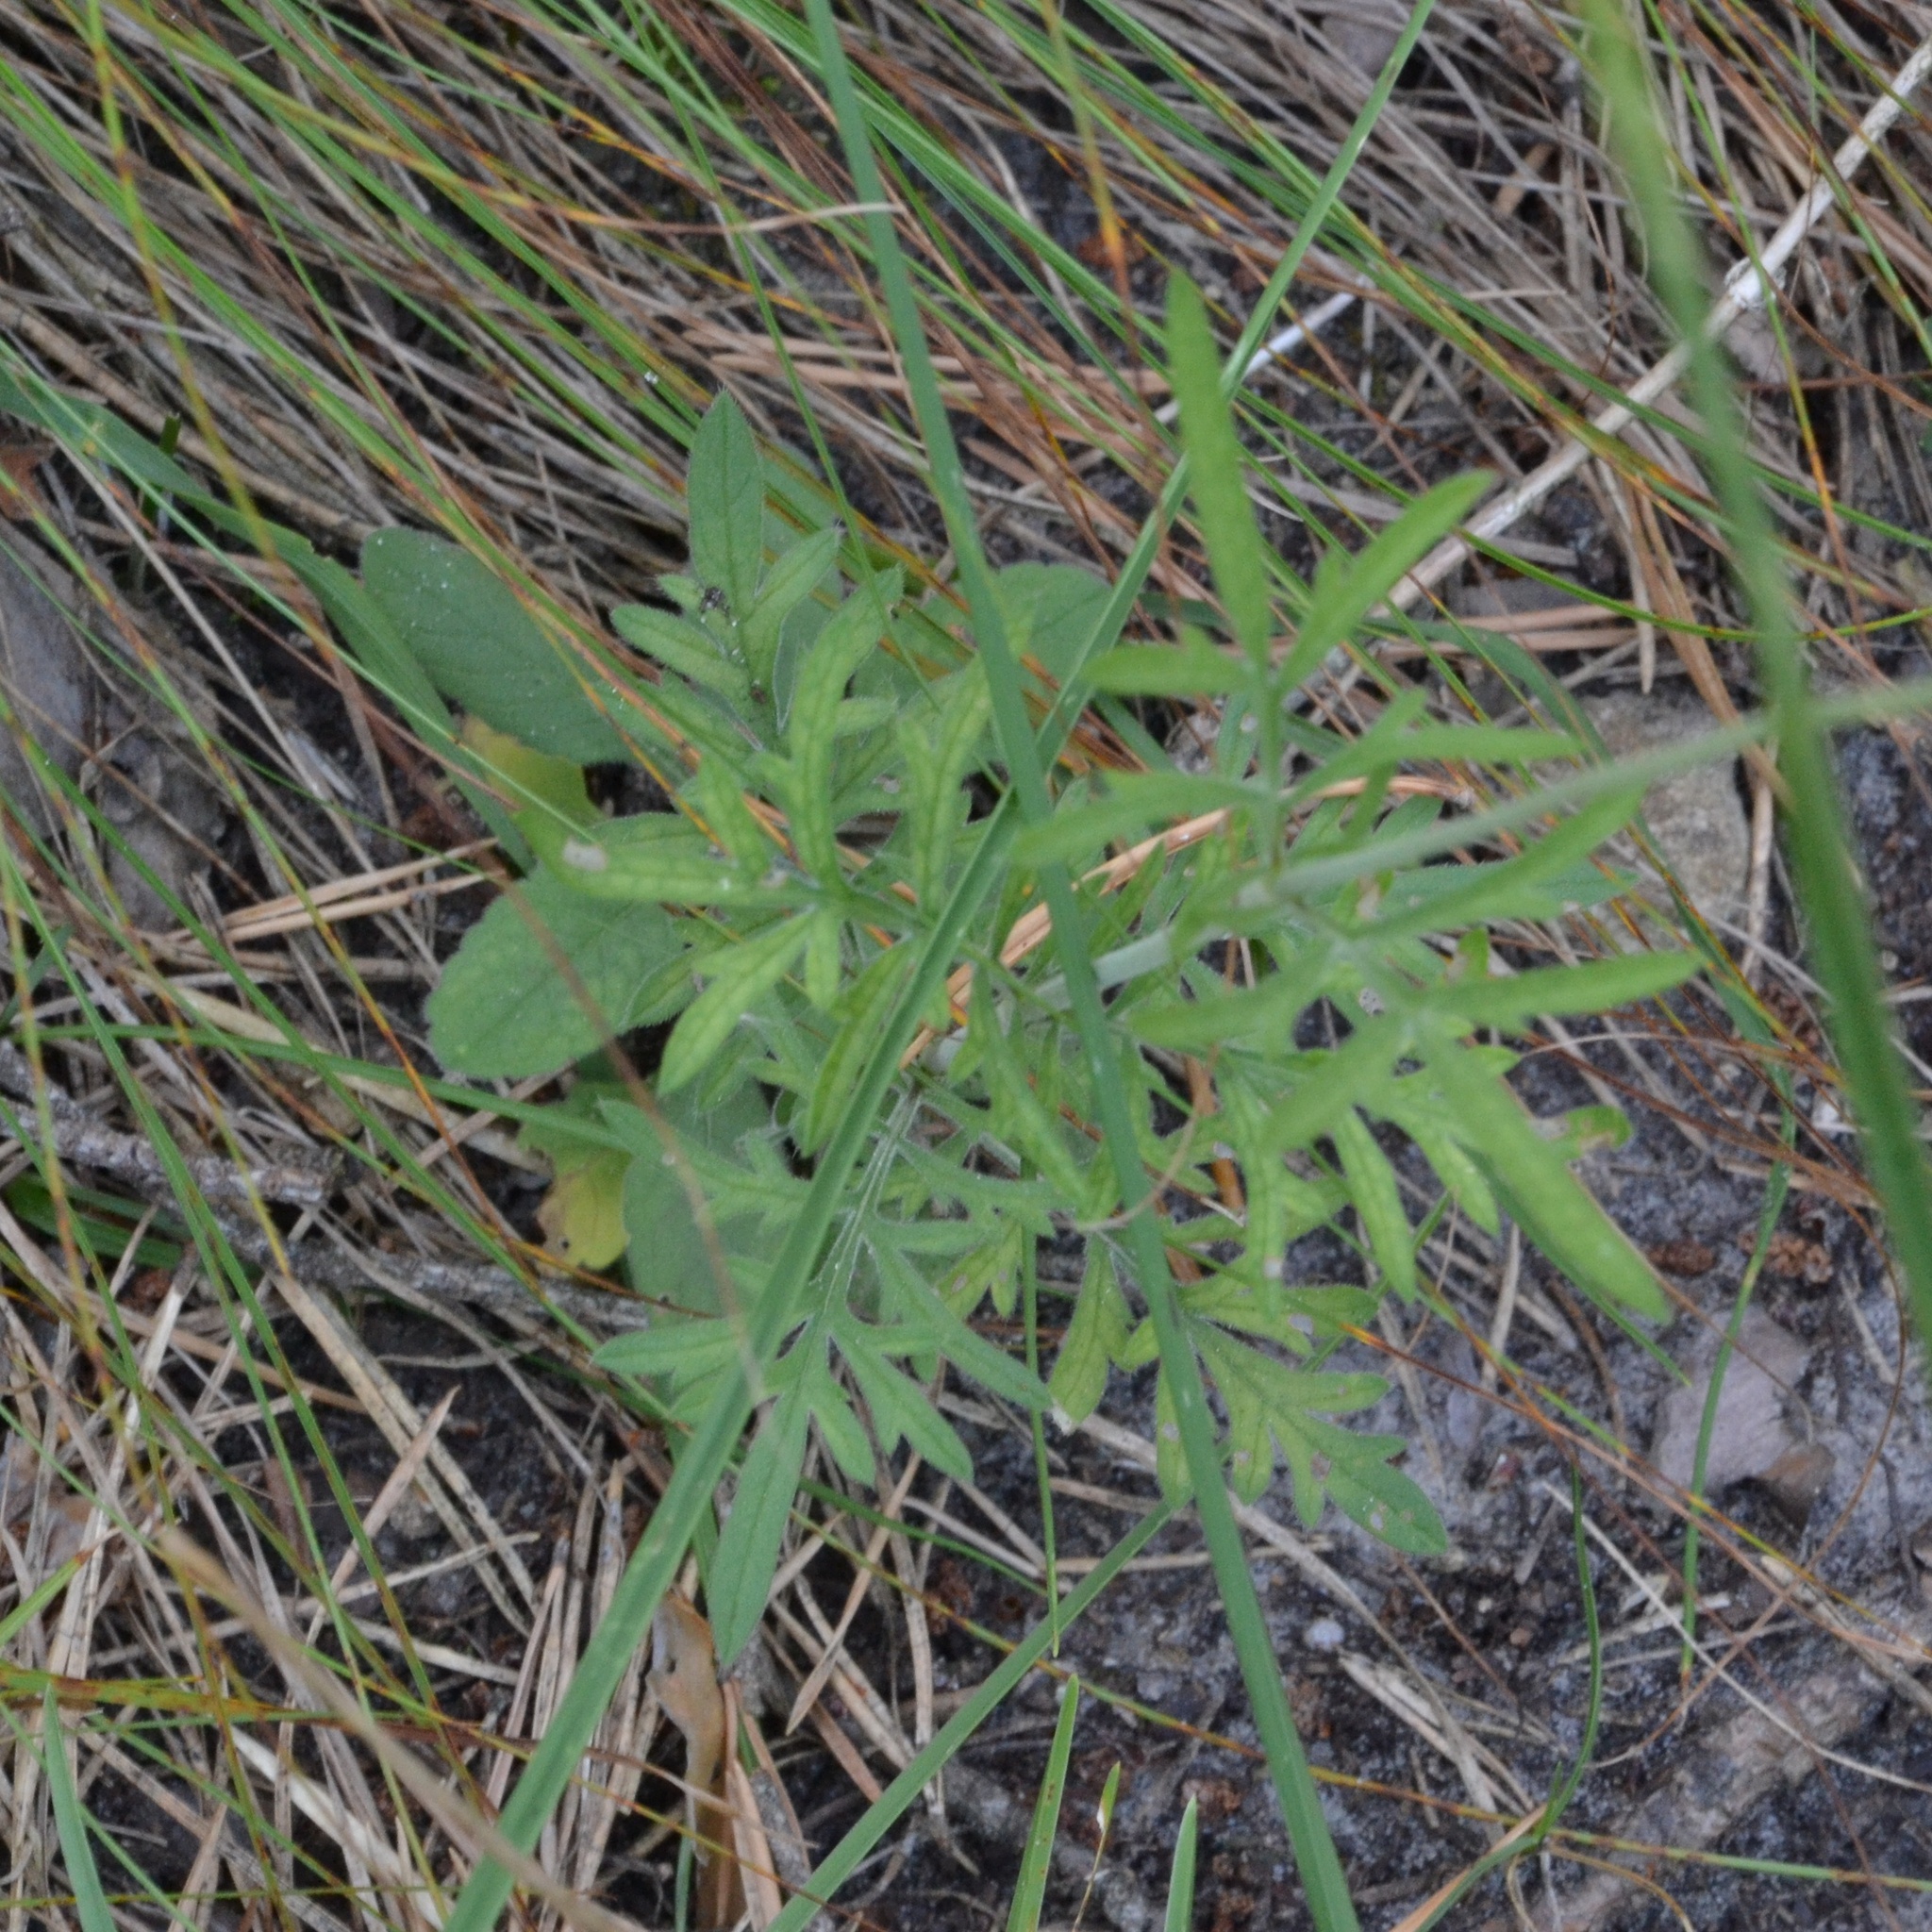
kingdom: Plantae
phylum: Tracheophyta
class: Magnoliopsida
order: Dipsacales
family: Caprifoliaceae
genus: Scabiosa
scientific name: Scabiosa ochroleuca
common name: Cream pincushions
